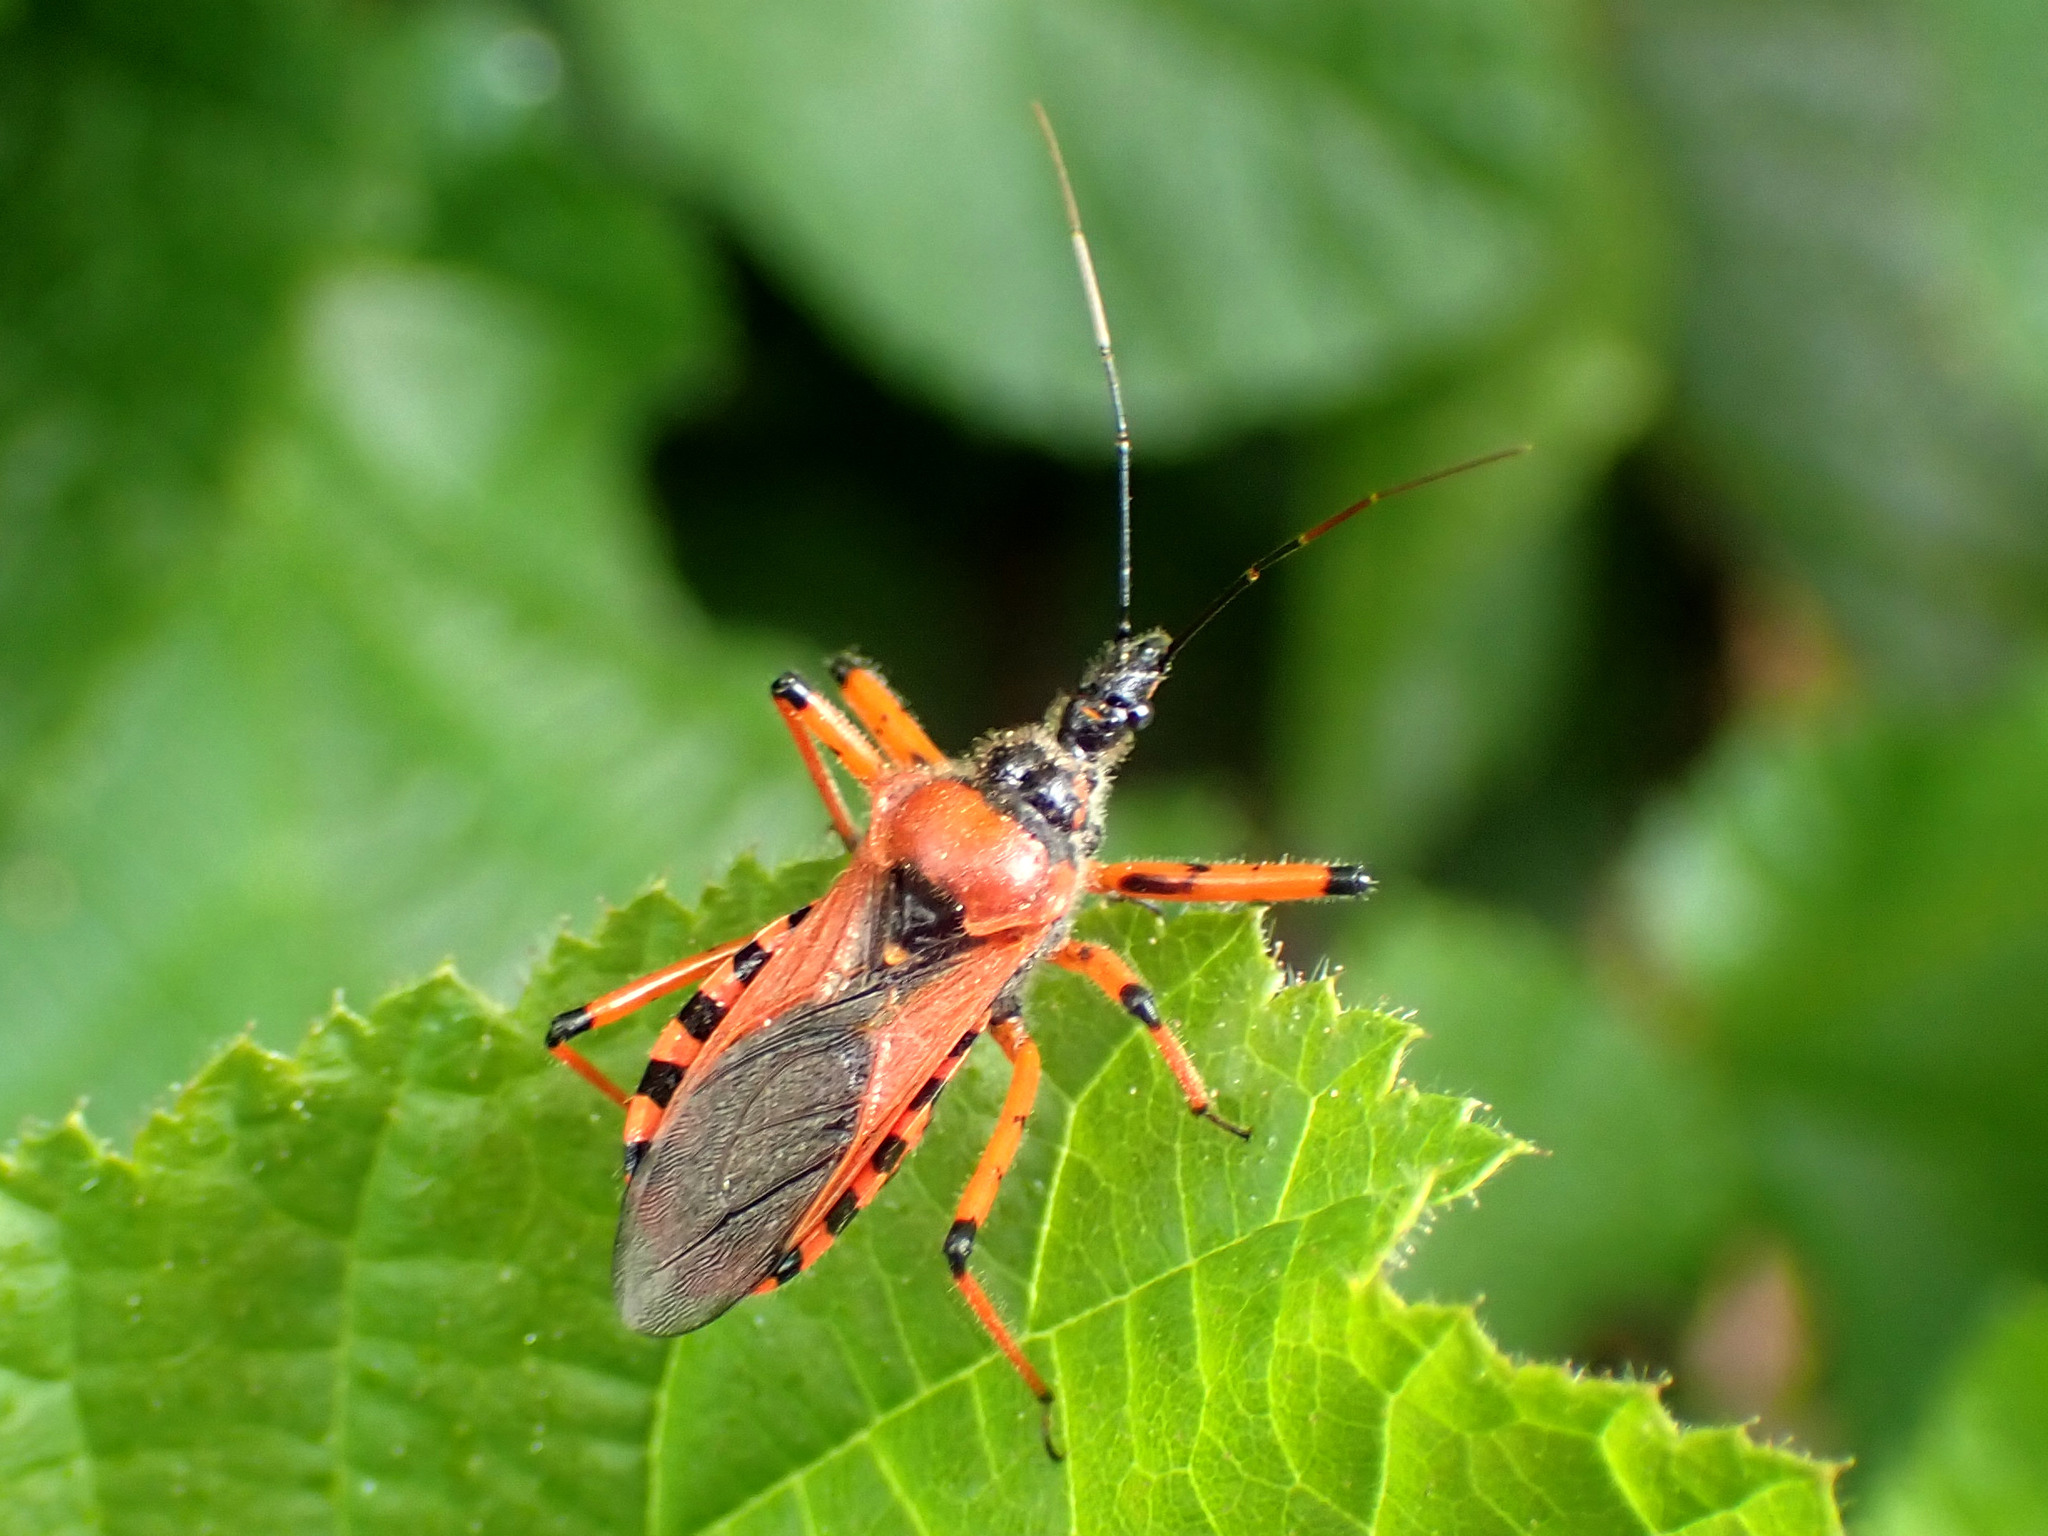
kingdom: Animalia
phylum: Arthropoda
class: Insecta
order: Hemiptera
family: Reduviidae
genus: Rhynocoris
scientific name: Rhynocoris iracundus
